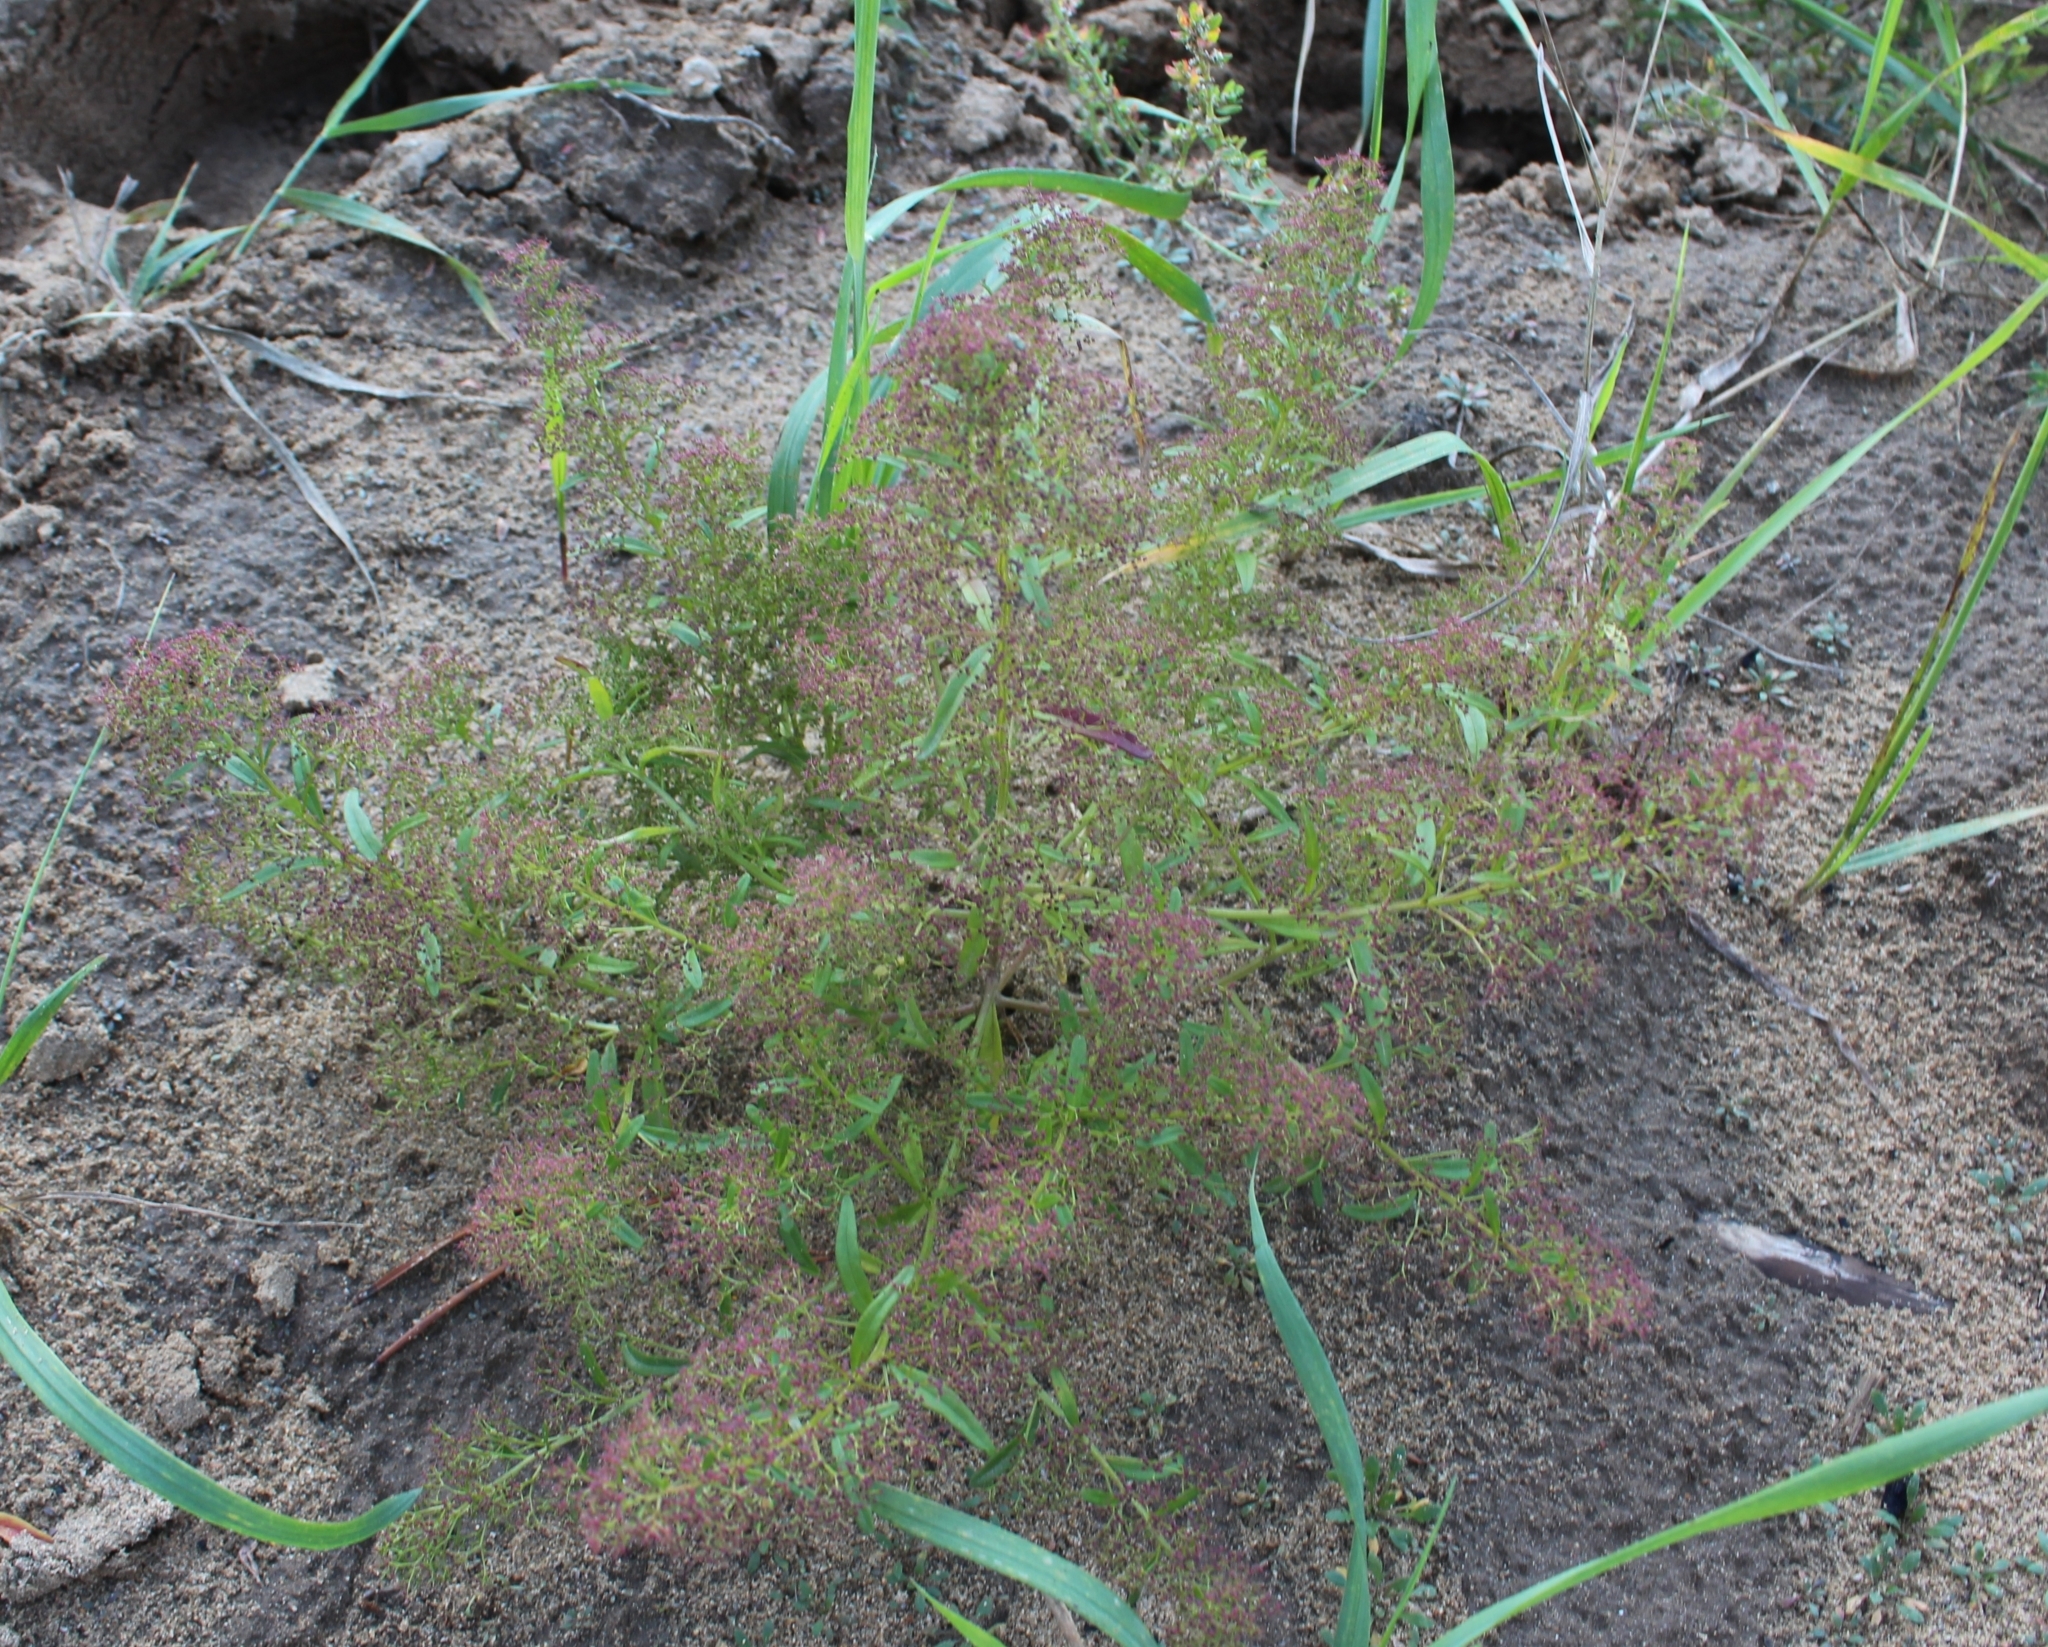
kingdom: Plantae
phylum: Tracheophyta
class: Magnoliopsida
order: Caryophyllales
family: Amaranthaceae
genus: Teloxys
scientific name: Teloxys aristata
